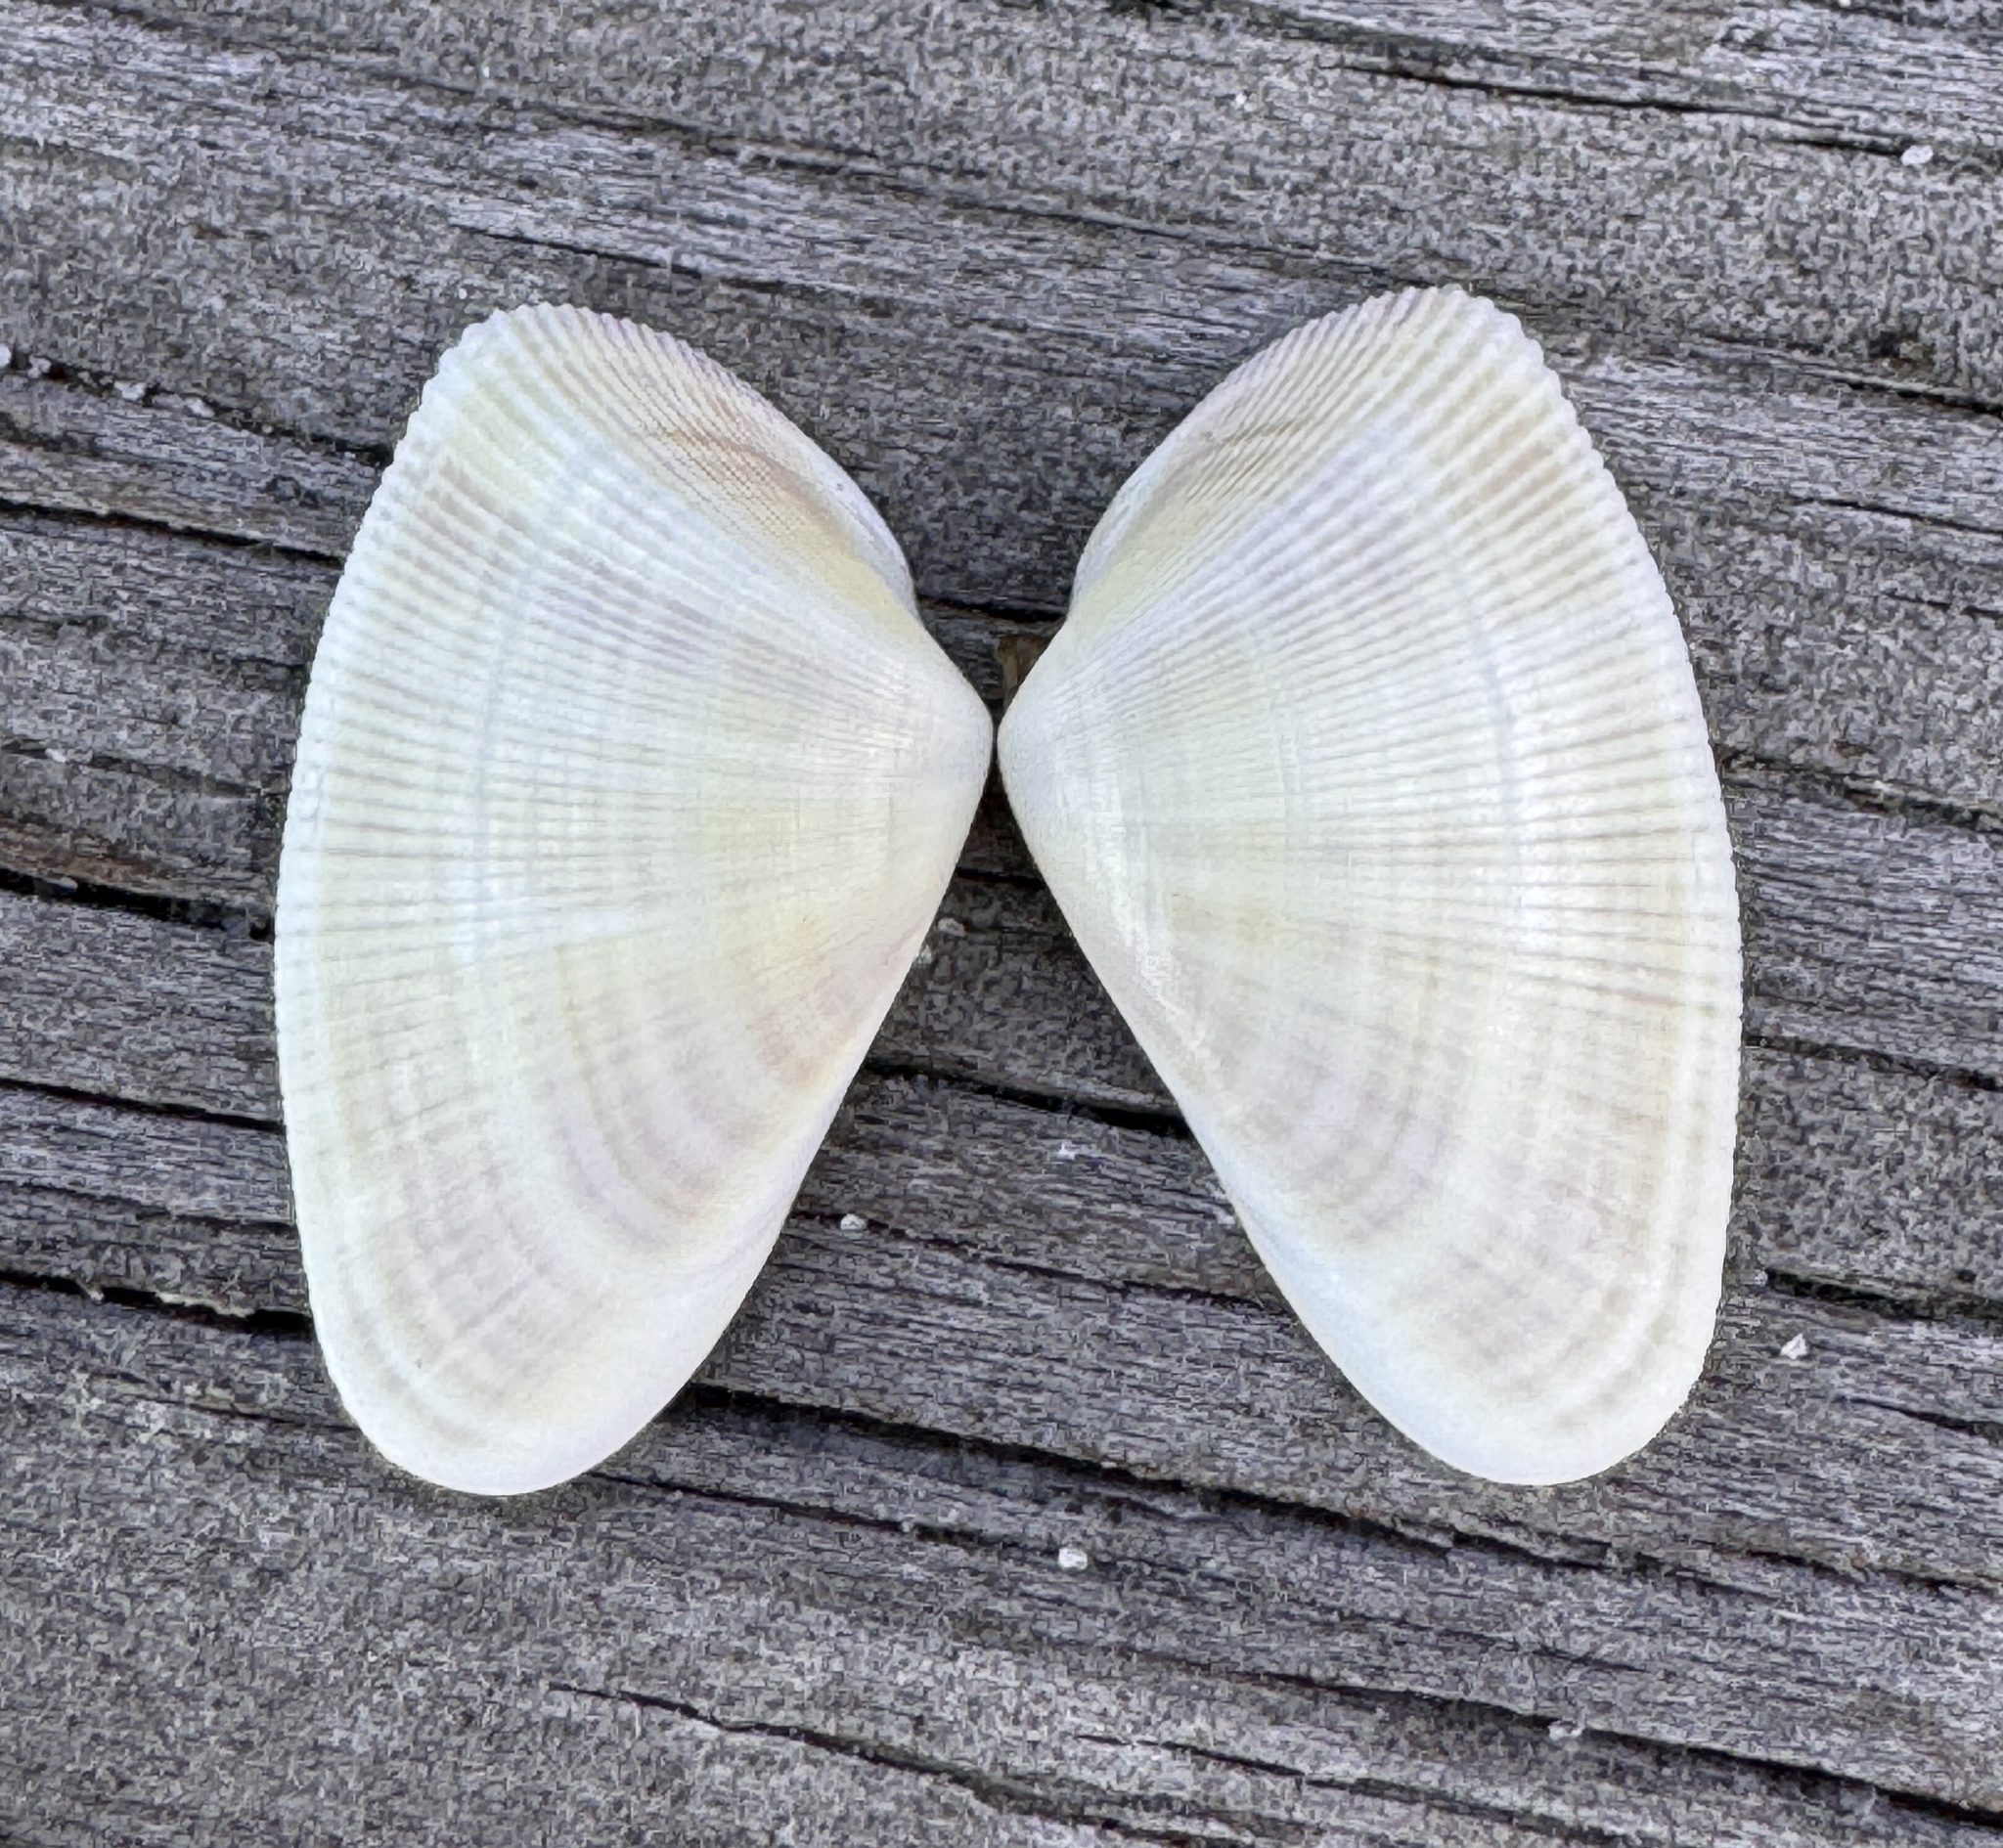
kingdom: Animalia
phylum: Mollusca
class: Bivalvia
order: Cardiida
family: Donacidae
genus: Donax
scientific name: Donax variabilis
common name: Butterfly shell
